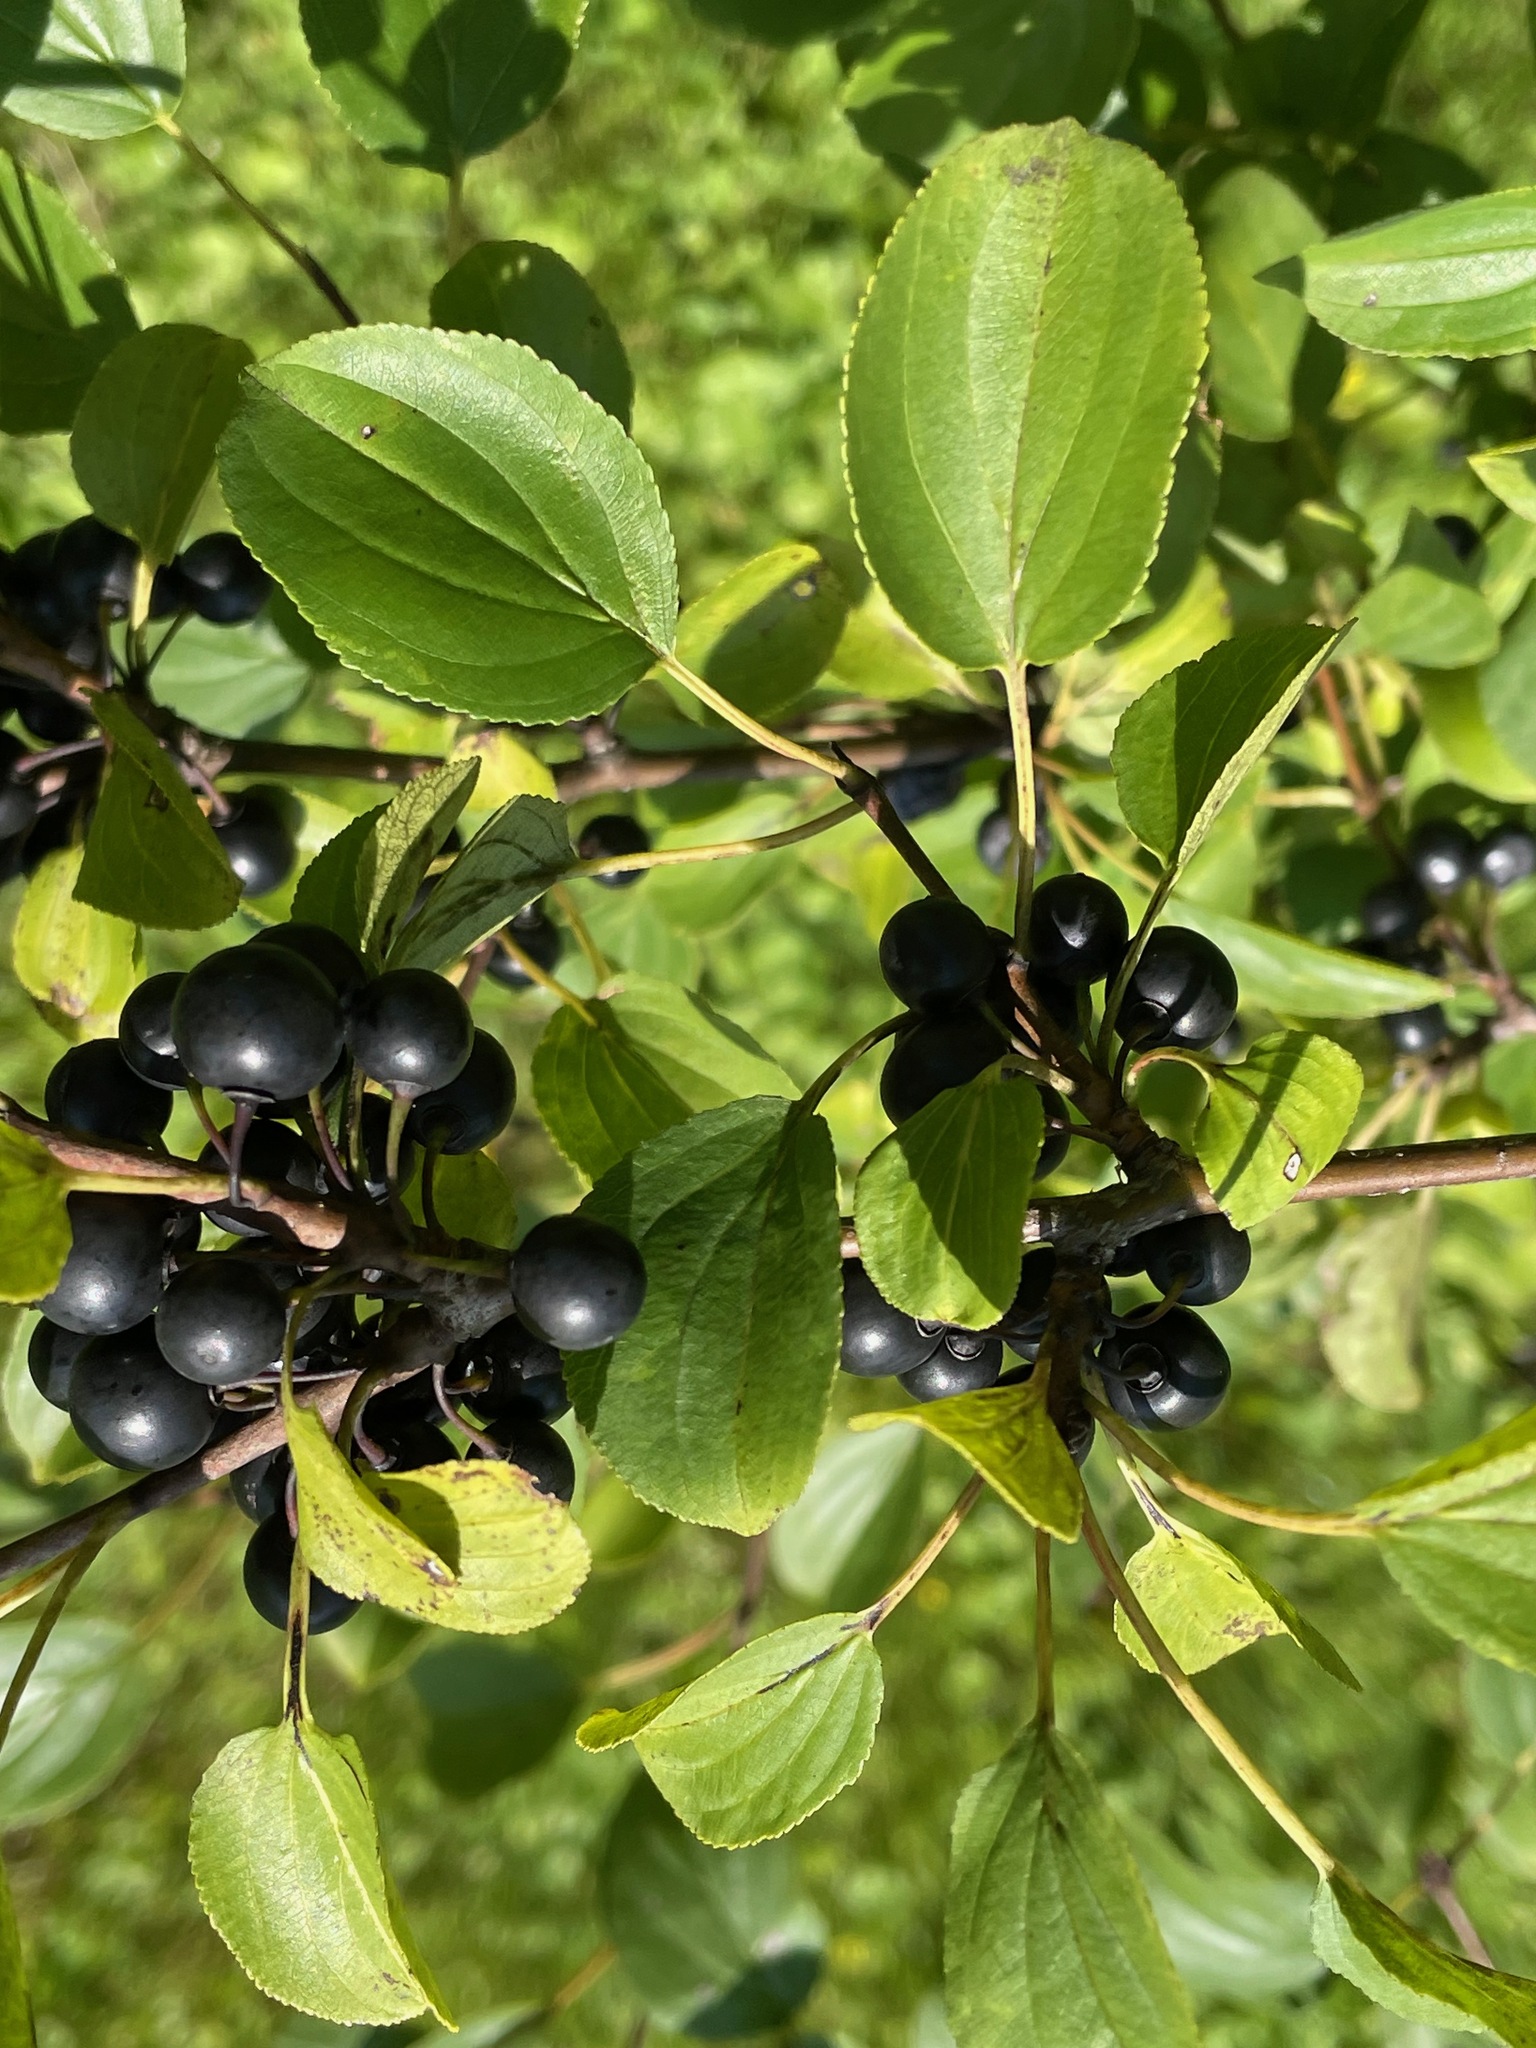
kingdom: Plantae
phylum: Tracheophyta
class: Magnoliopsida
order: Rosales
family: Rhamnaceae
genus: Rhamnus
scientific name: Rhamnus cathartica
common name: Common buckthorn
